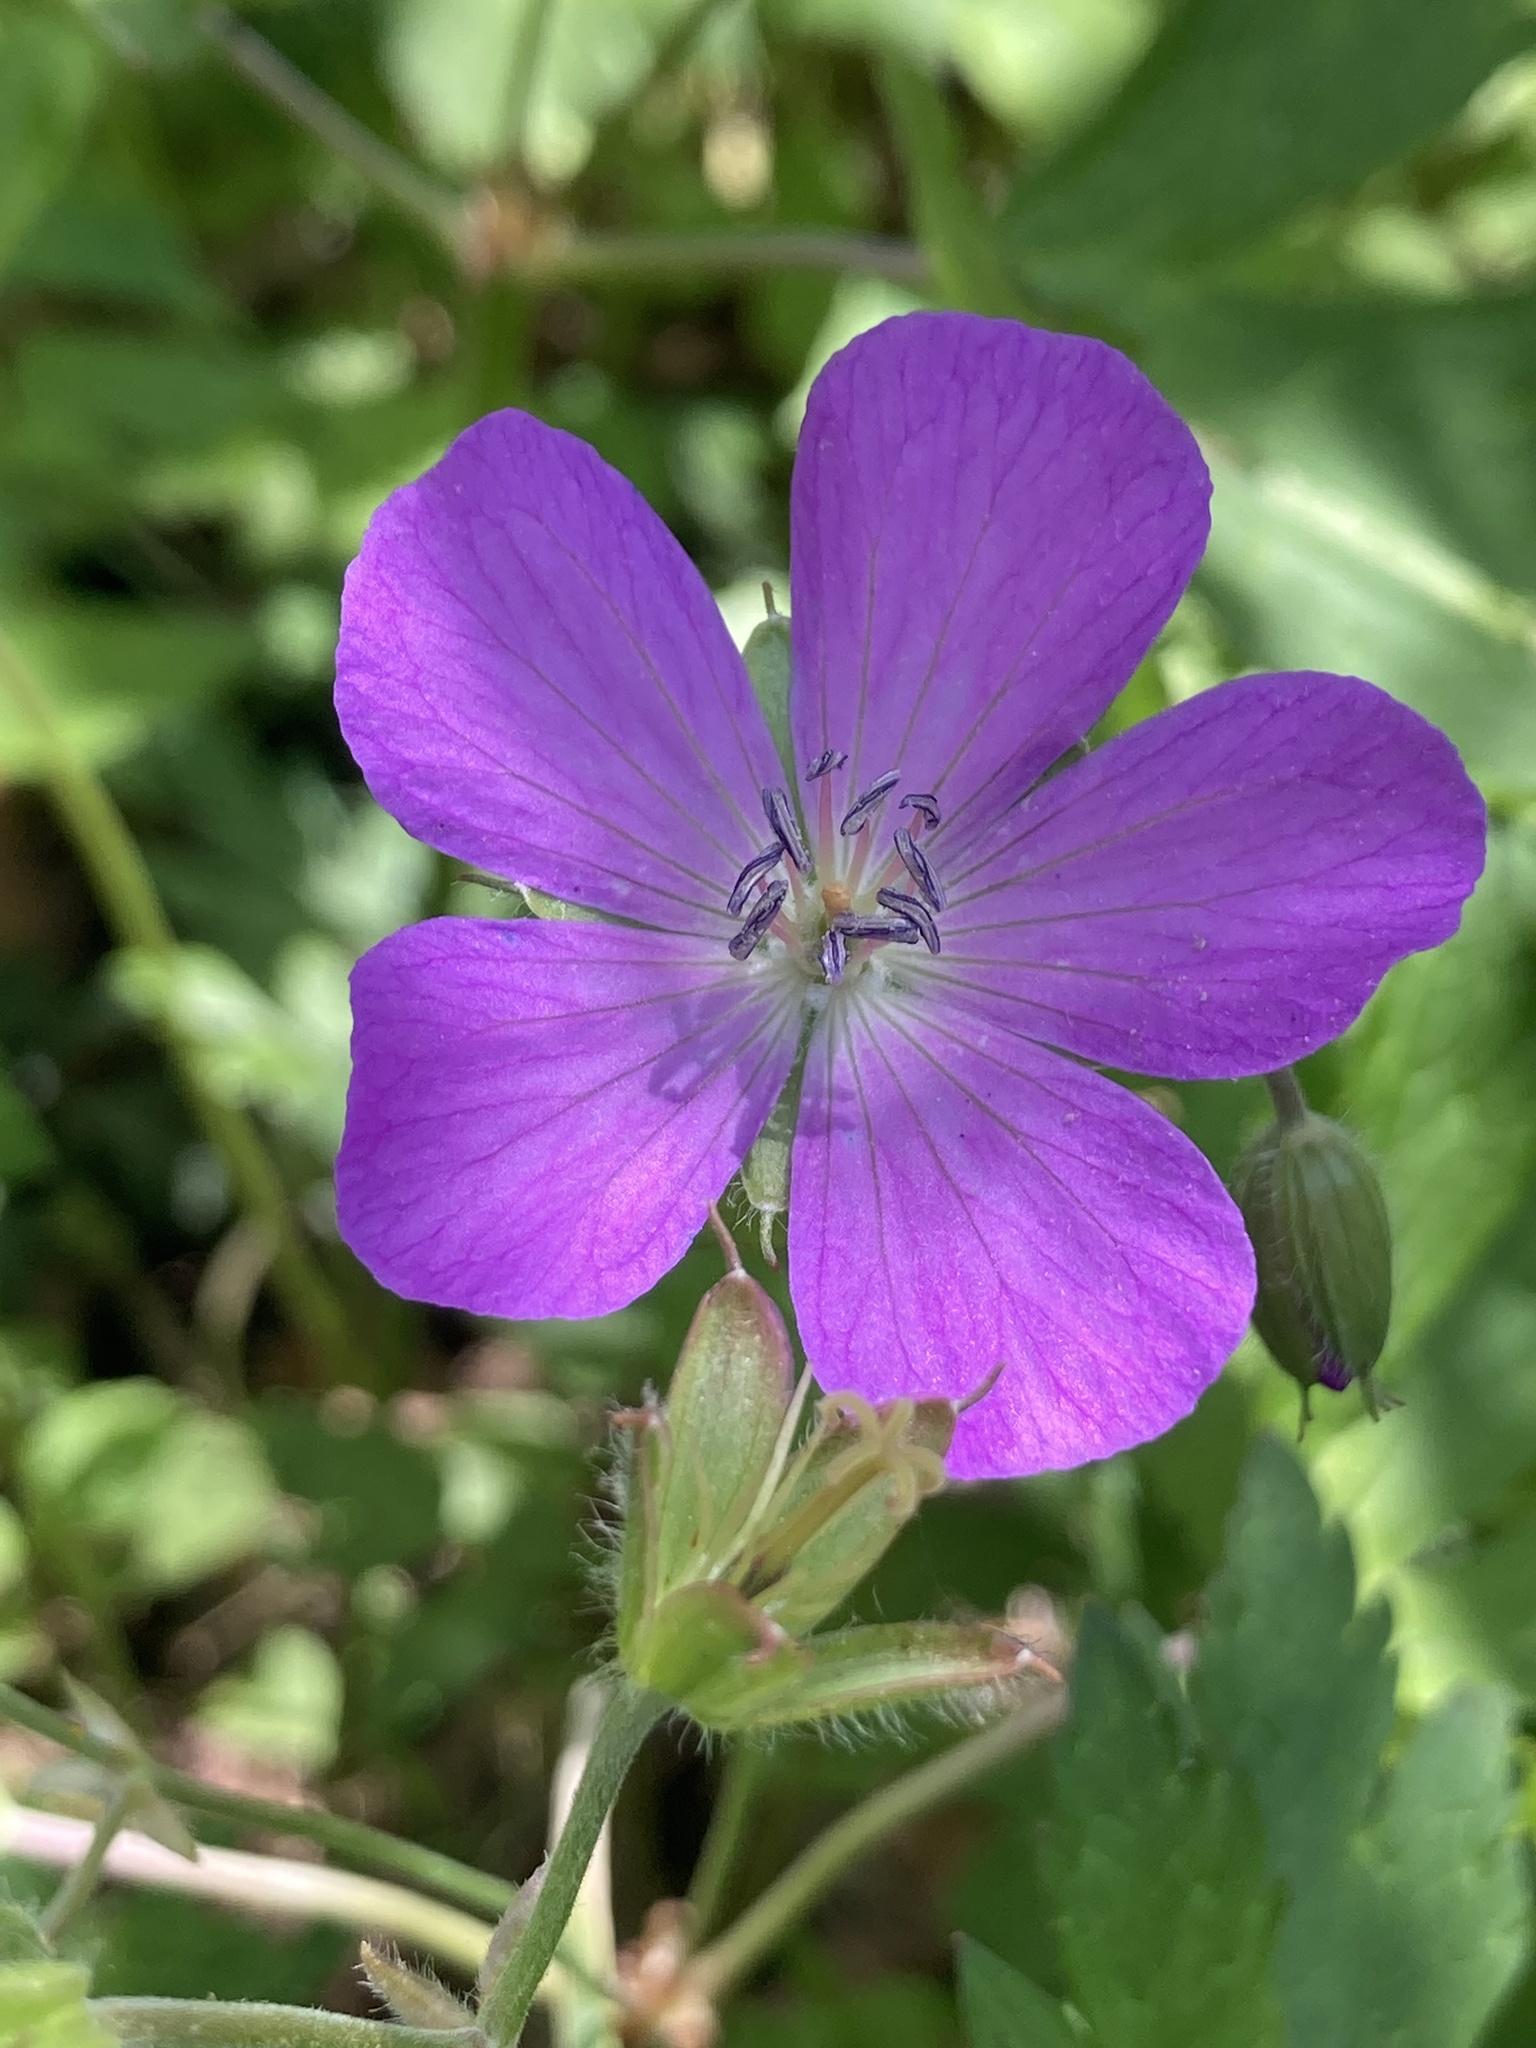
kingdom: Plantae
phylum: Tracheophyta
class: Magnoliopsida
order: Geraniales
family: Geraniaceae
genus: Geranium
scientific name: Geranium maculatum
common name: Spotted geranium
